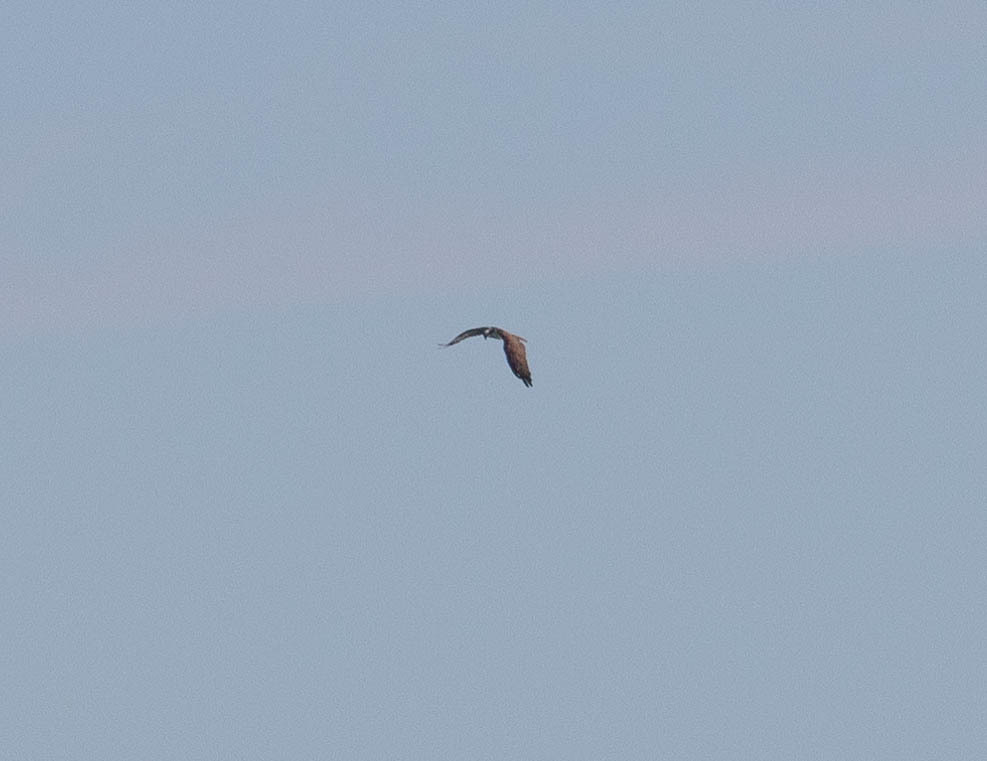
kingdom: Animalia
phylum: Chordata
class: Aves
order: Accipitriformes
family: Pandionidae
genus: Pandion
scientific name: Pandion haliaetus
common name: Osprey
